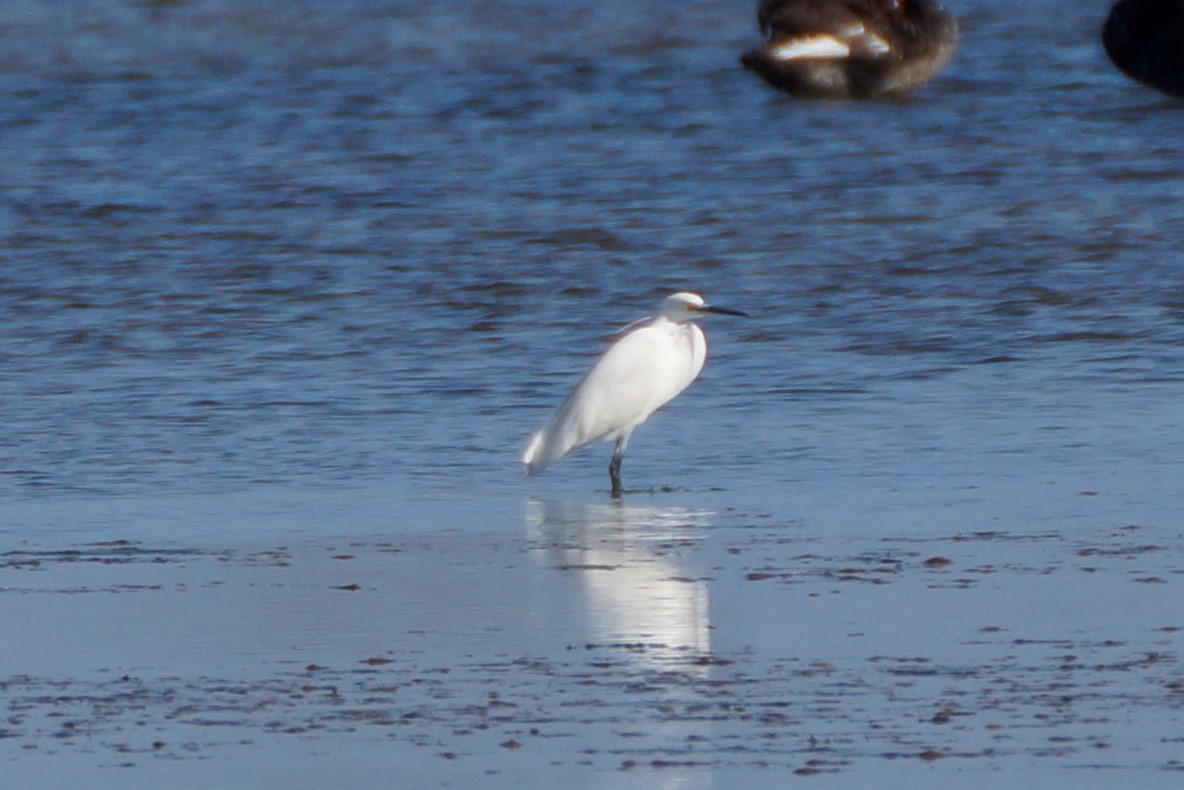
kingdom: Animalia
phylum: Chordata
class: Aves
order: Pelecaniformes
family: Ardeidae
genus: Egretta
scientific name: Egretta garzetta
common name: Little egret
